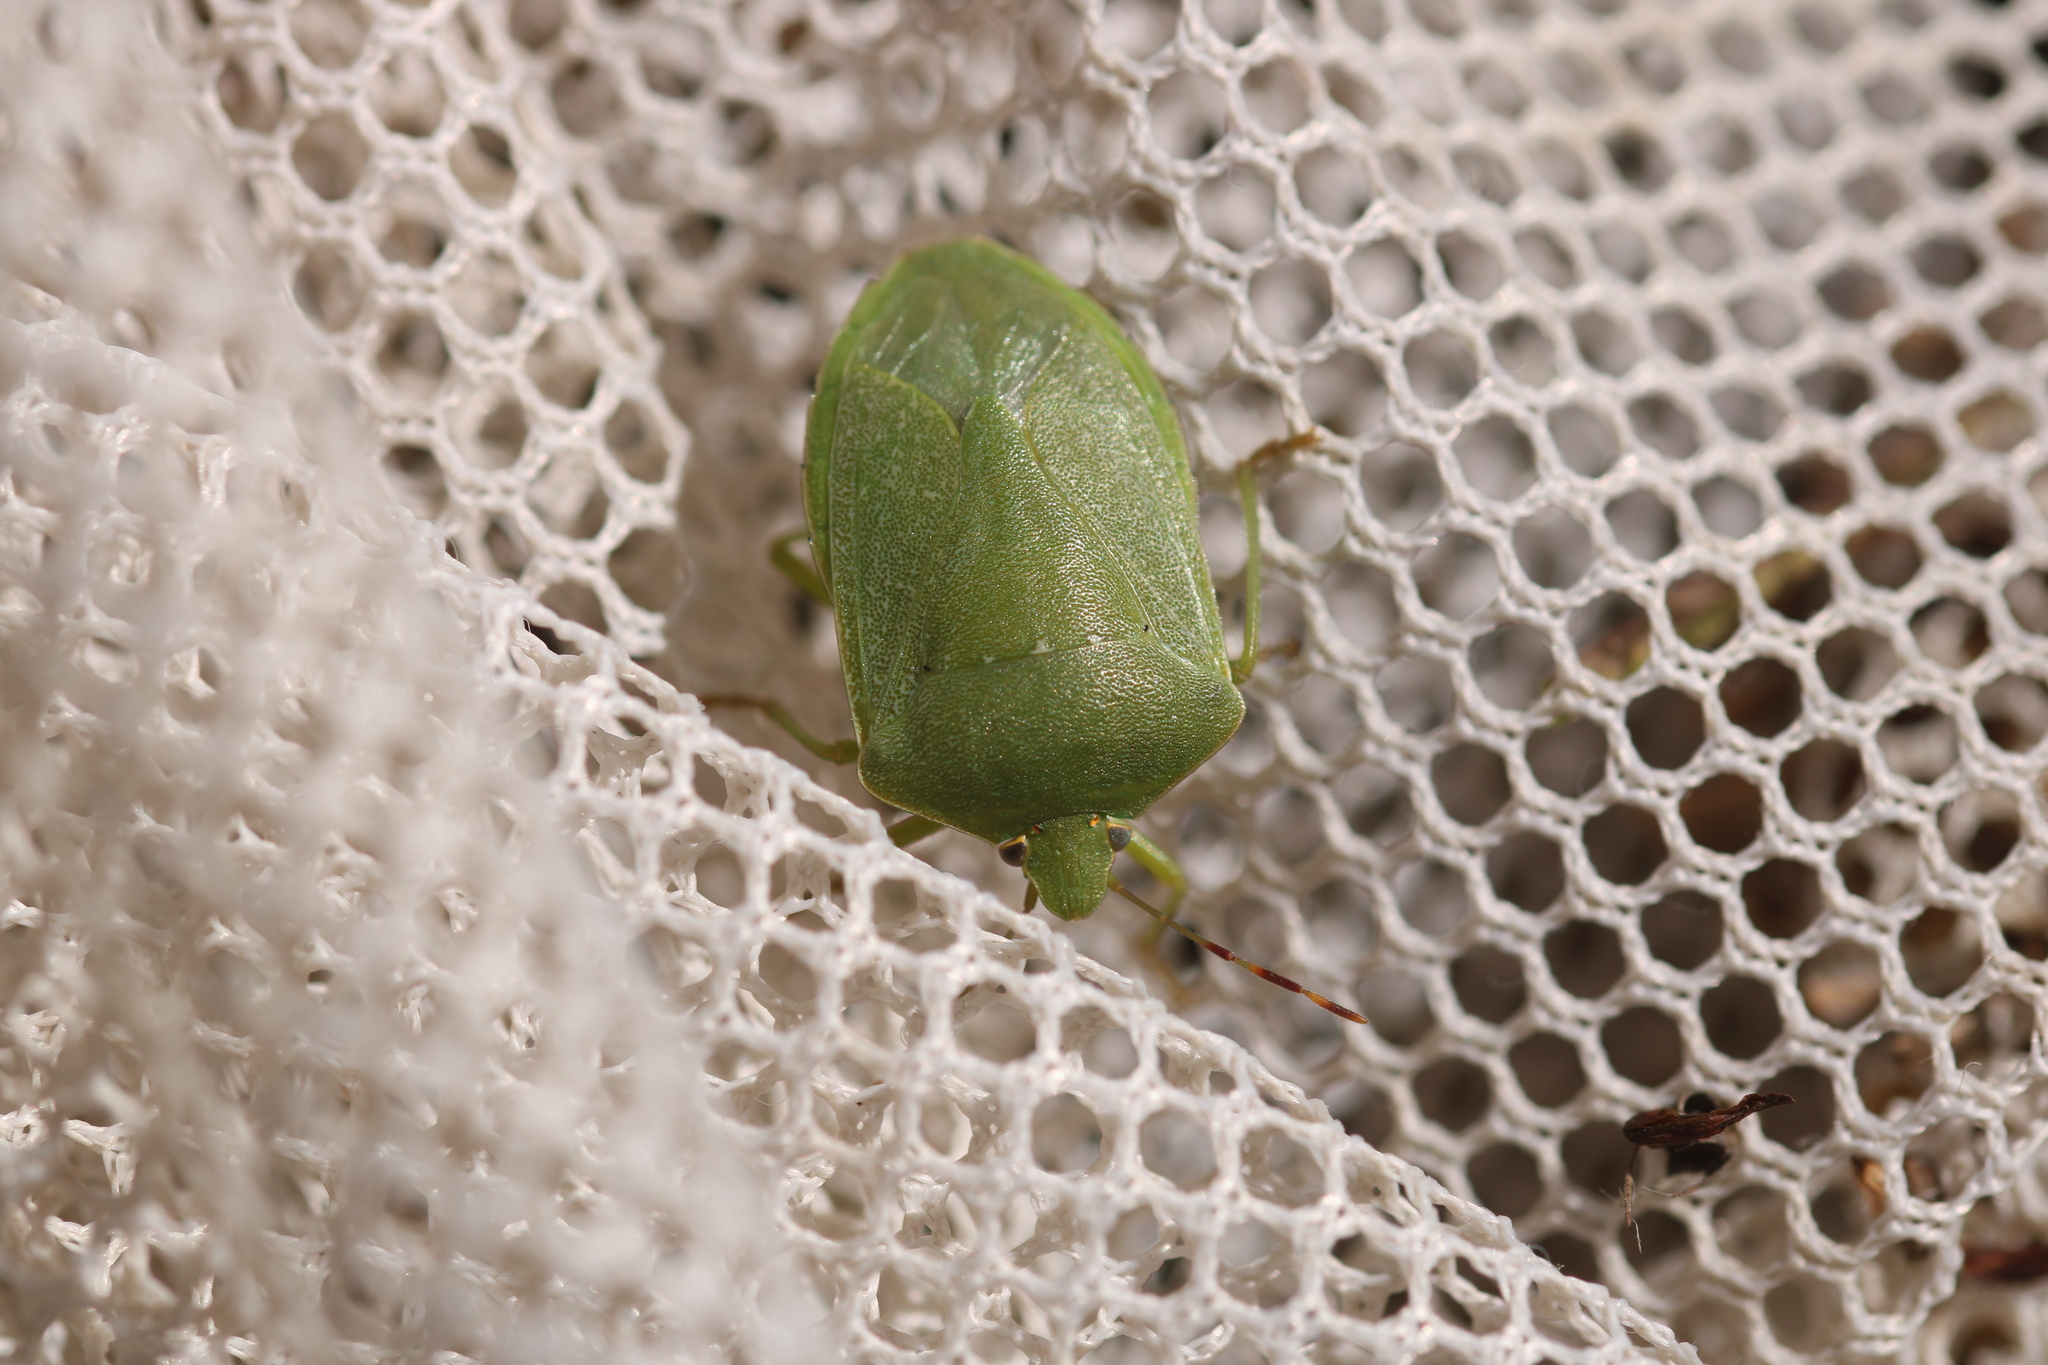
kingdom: Animalia
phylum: Arthropoda
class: Insecta
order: Hemiptera
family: Pentatomidae
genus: Nezara
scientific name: Nezara viridula
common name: Southern green stink bug
